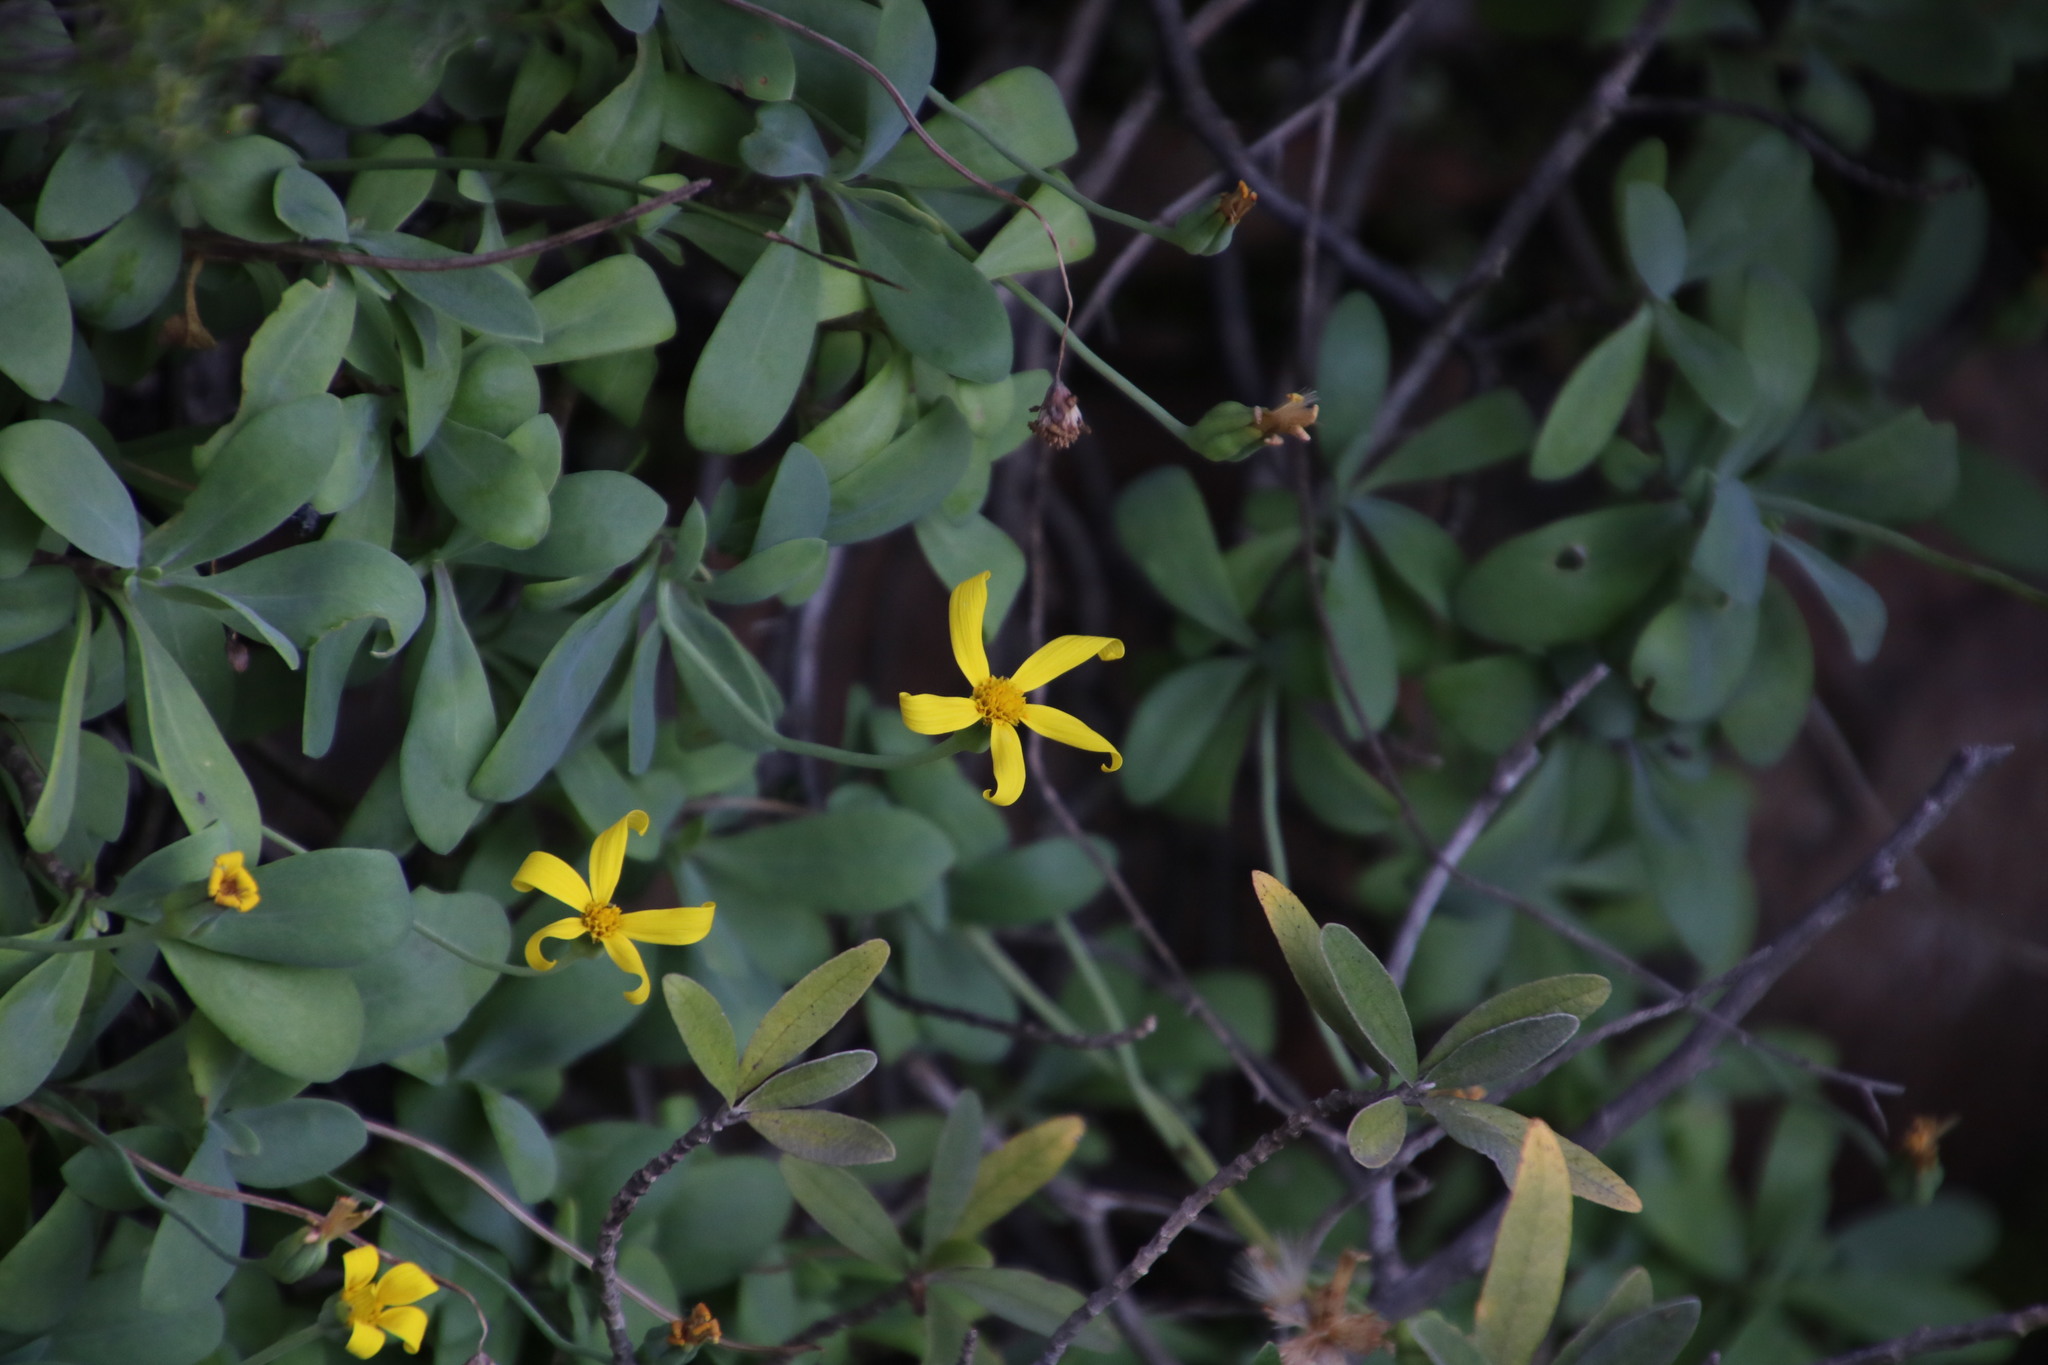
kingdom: Plantae
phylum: Tracheophyta
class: Magnoliopsida
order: Asterales
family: Asteraceae
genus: Othonna
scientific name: Othonna arborescens
